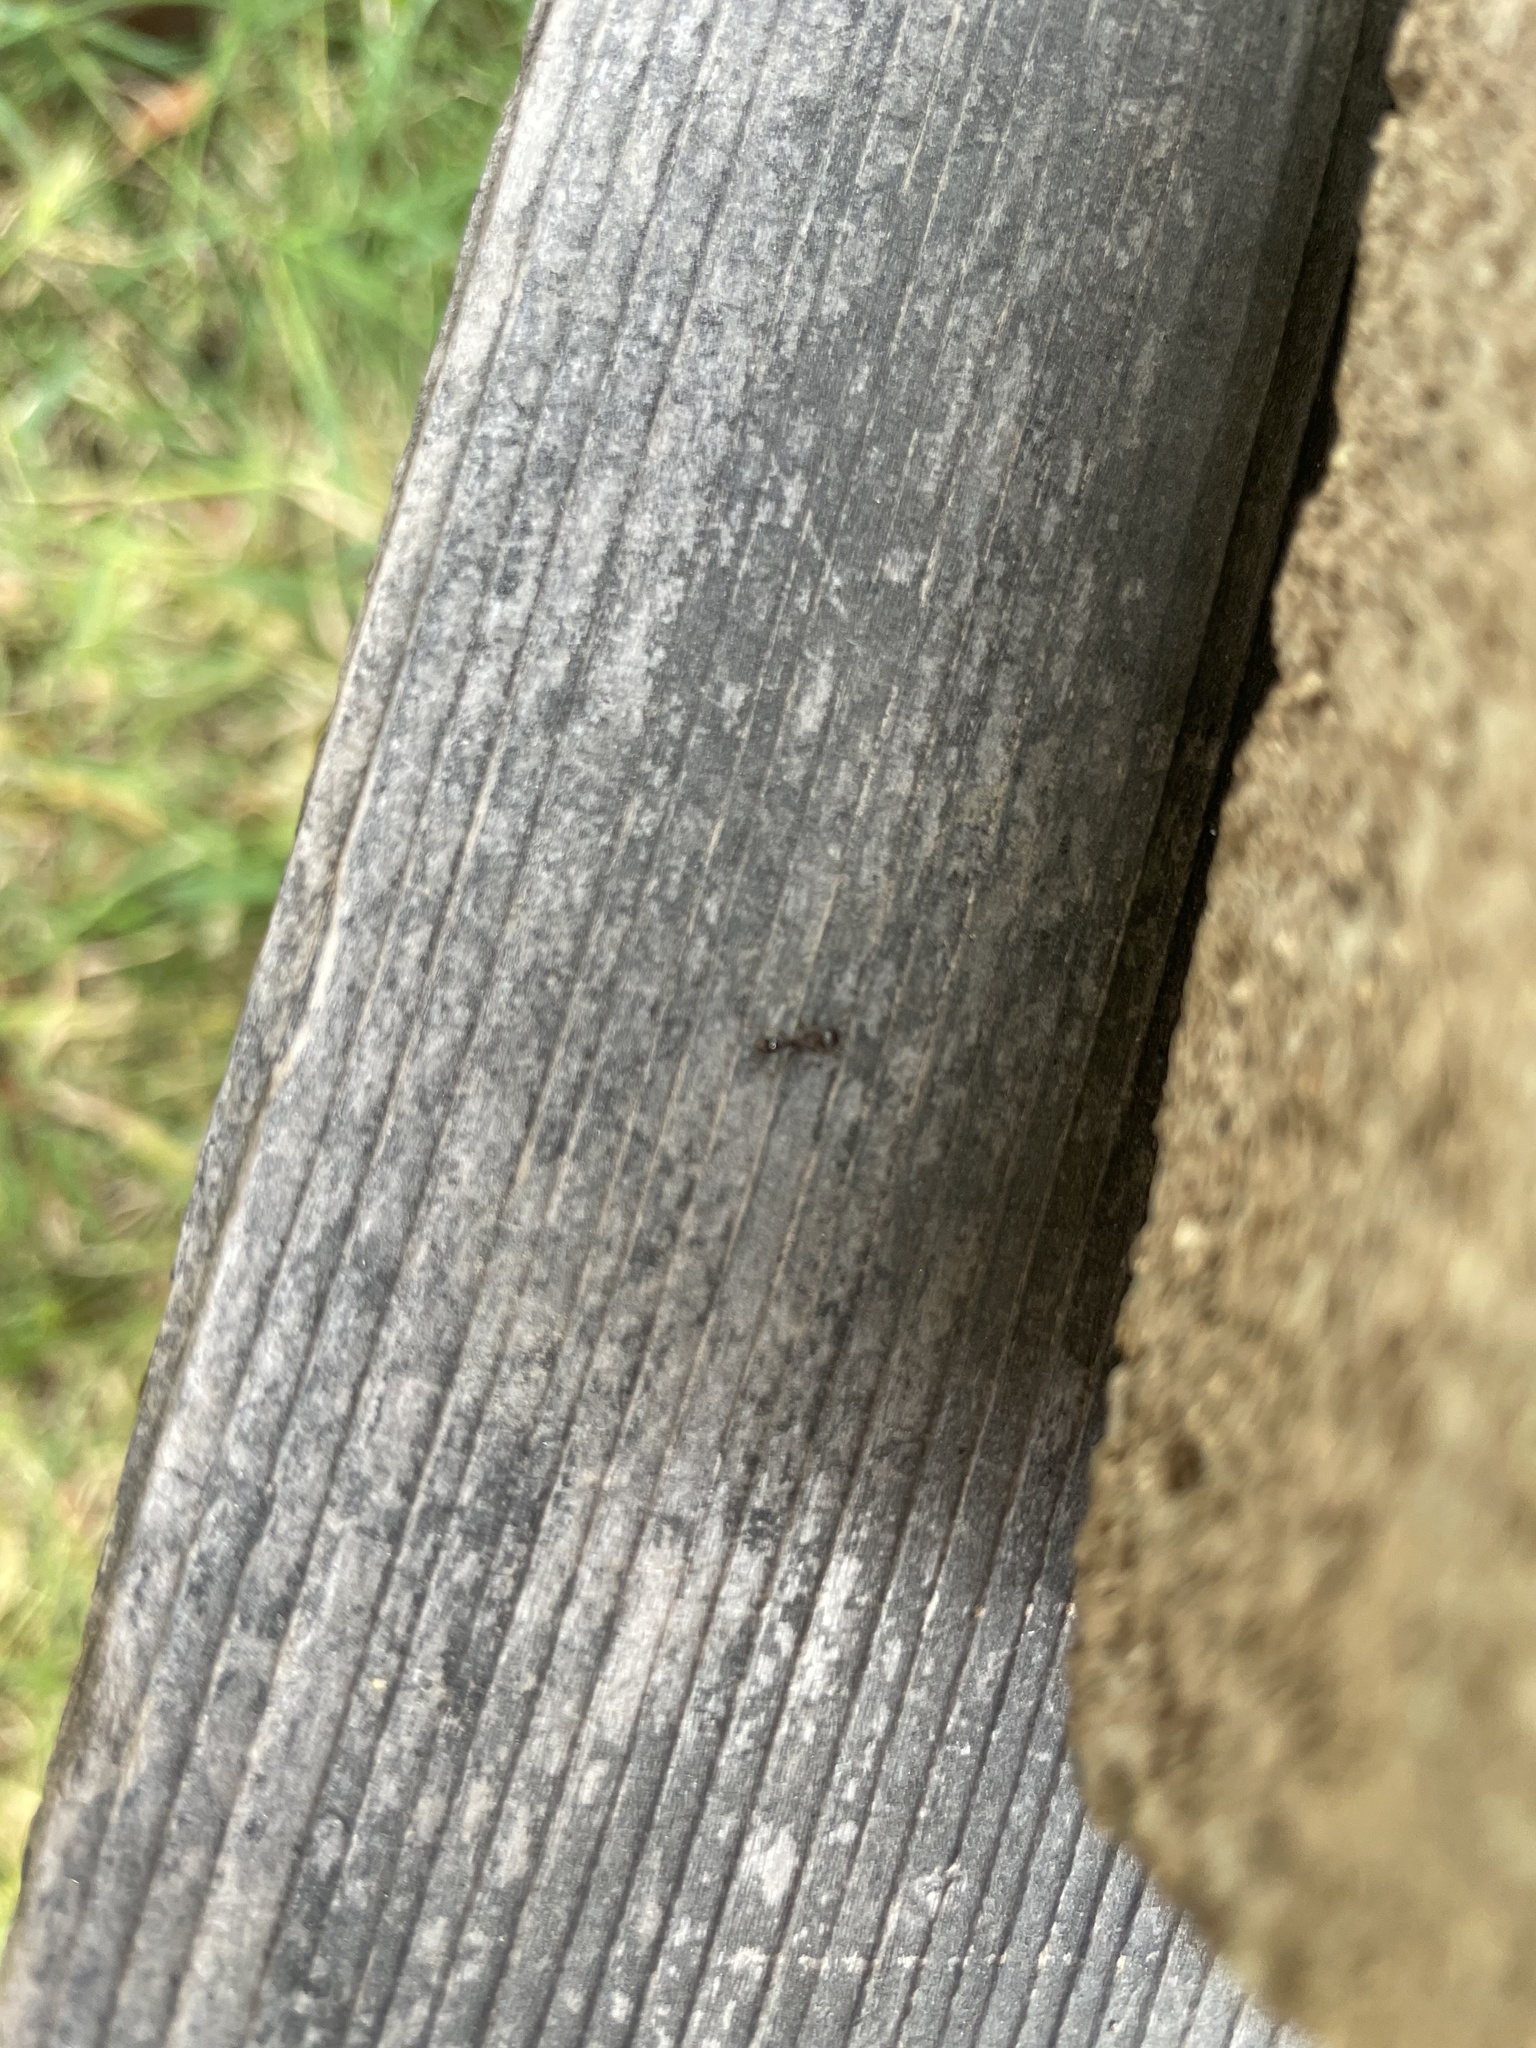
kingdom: Animalia
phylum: Arthropoda
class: Insecta
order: Hymenoptera
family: Formicidae
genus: Tetramorium
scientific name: Tetramorium immigrans
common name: Pavement ant
